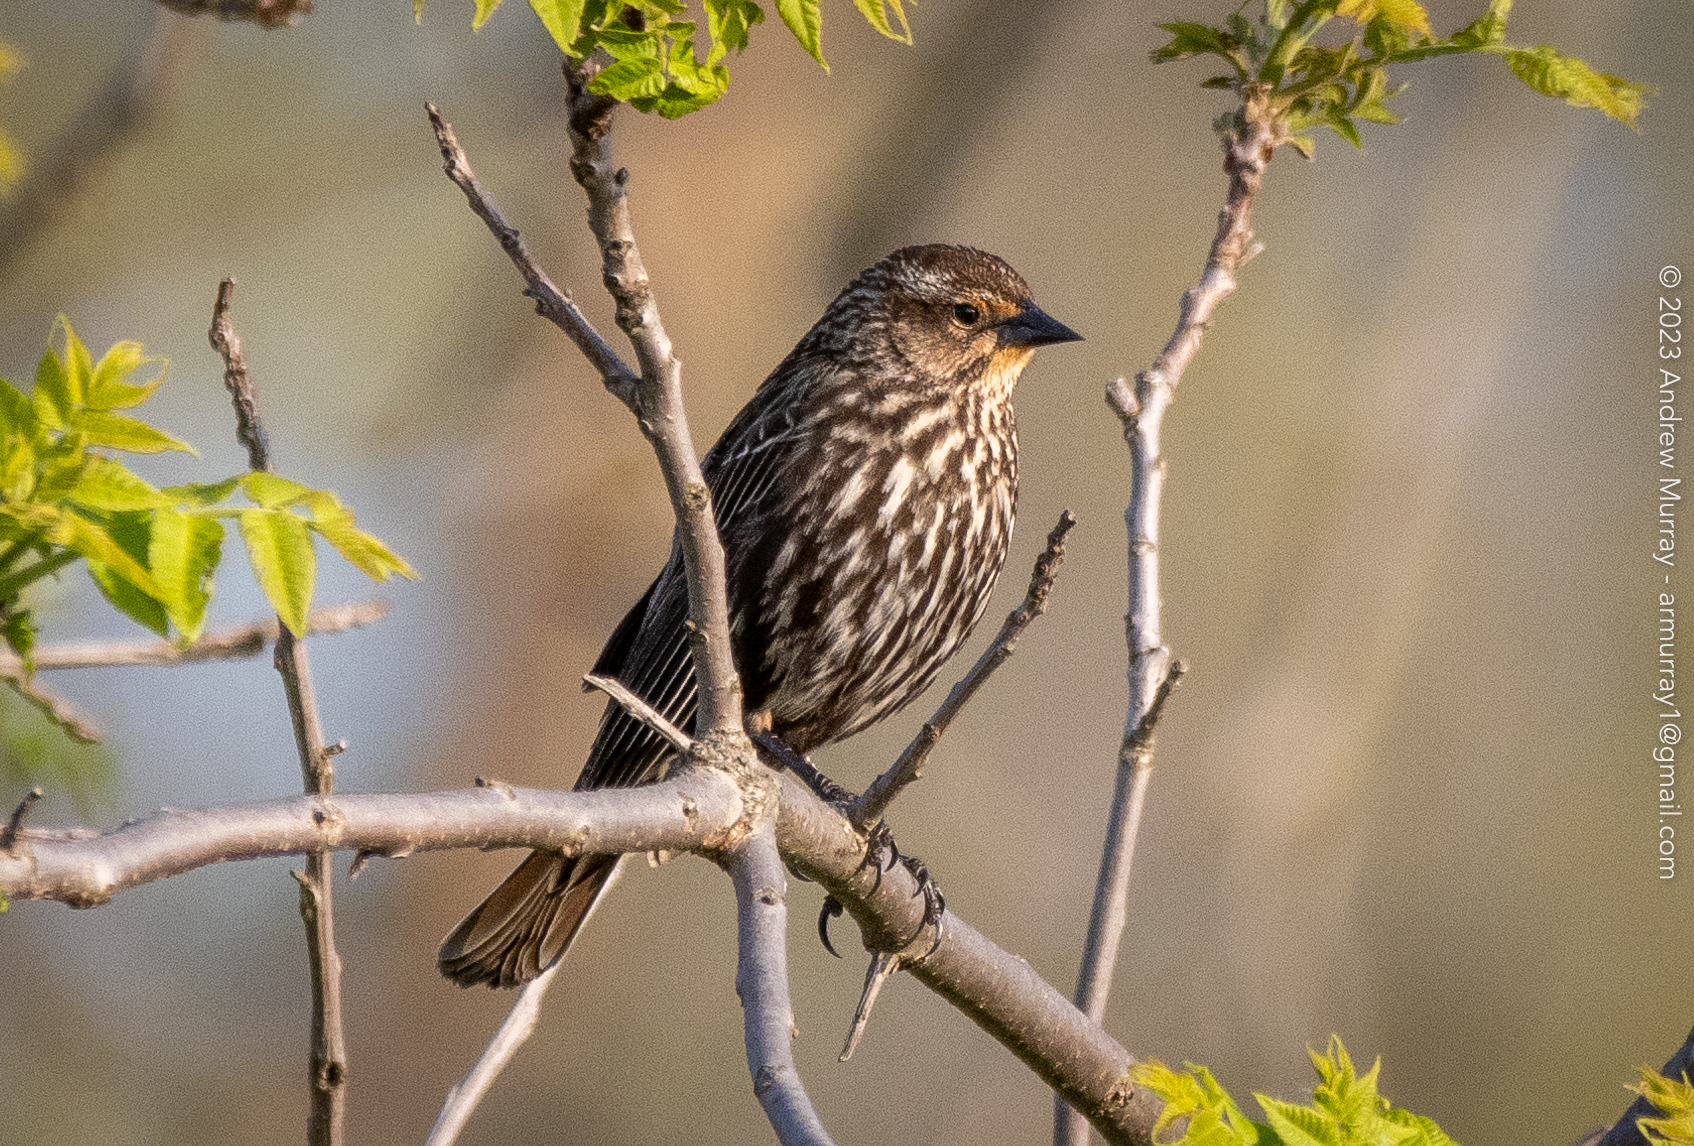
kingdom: Animalia
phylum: Chordata
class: Aves
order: Passeriformes
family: Icteridae
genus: Agelaius
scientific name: Agelaius phoeniceus
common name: Red-winged blackbird
